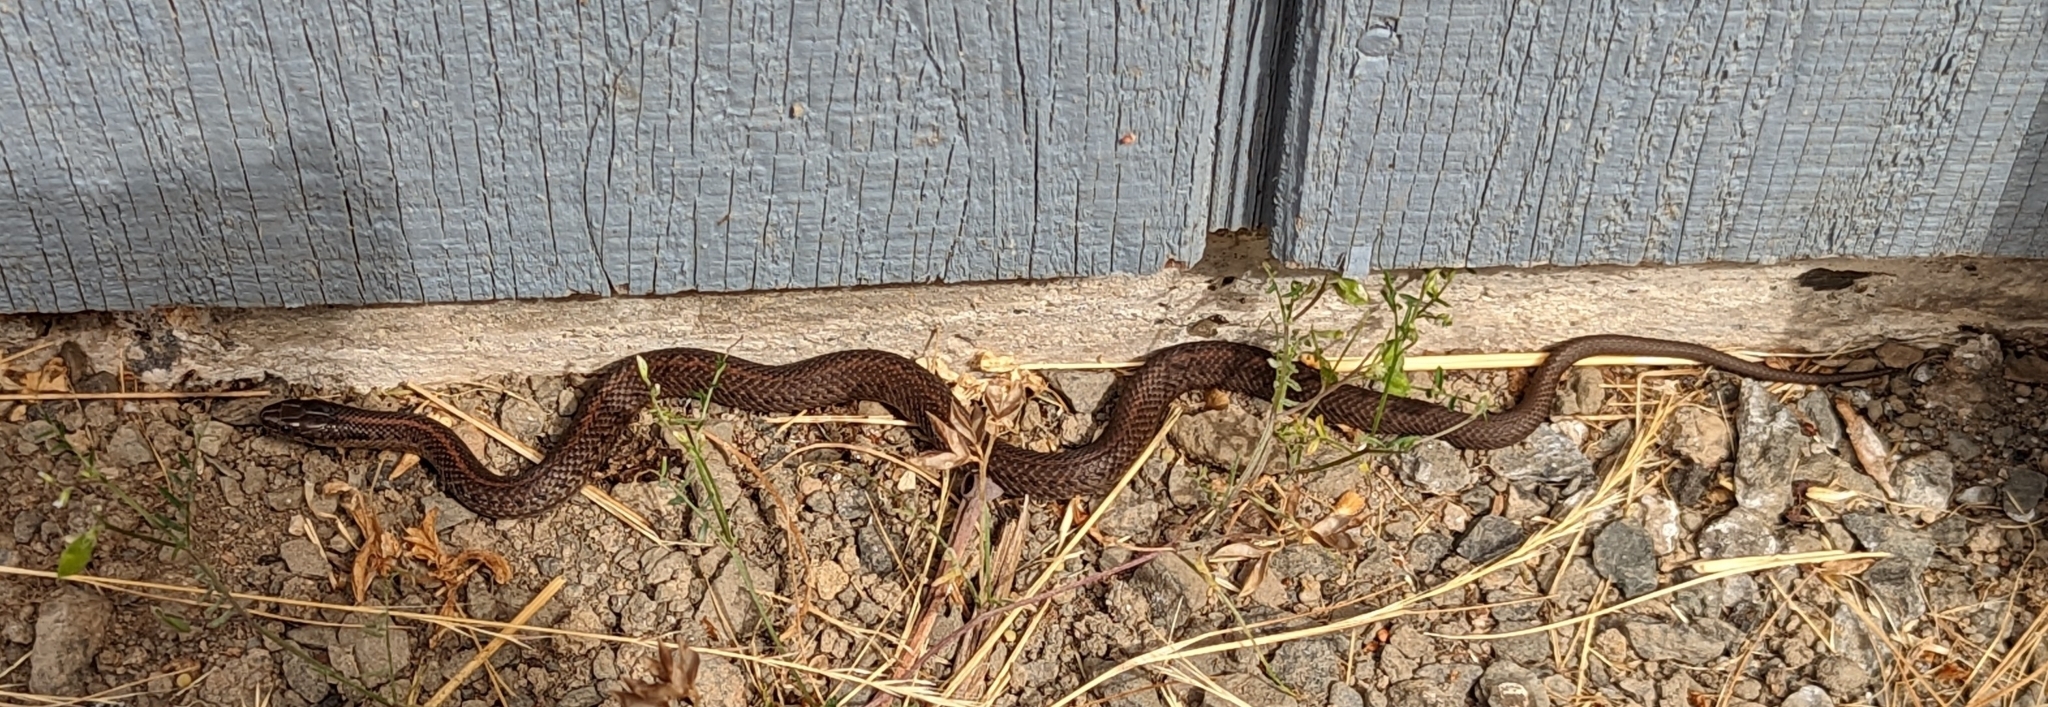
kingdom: Animalia
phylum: Chordata
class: Squamata
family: Colubridae
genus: Thamnophis
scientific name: Thamnophis ordinoides
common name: Northwestern garter snake
